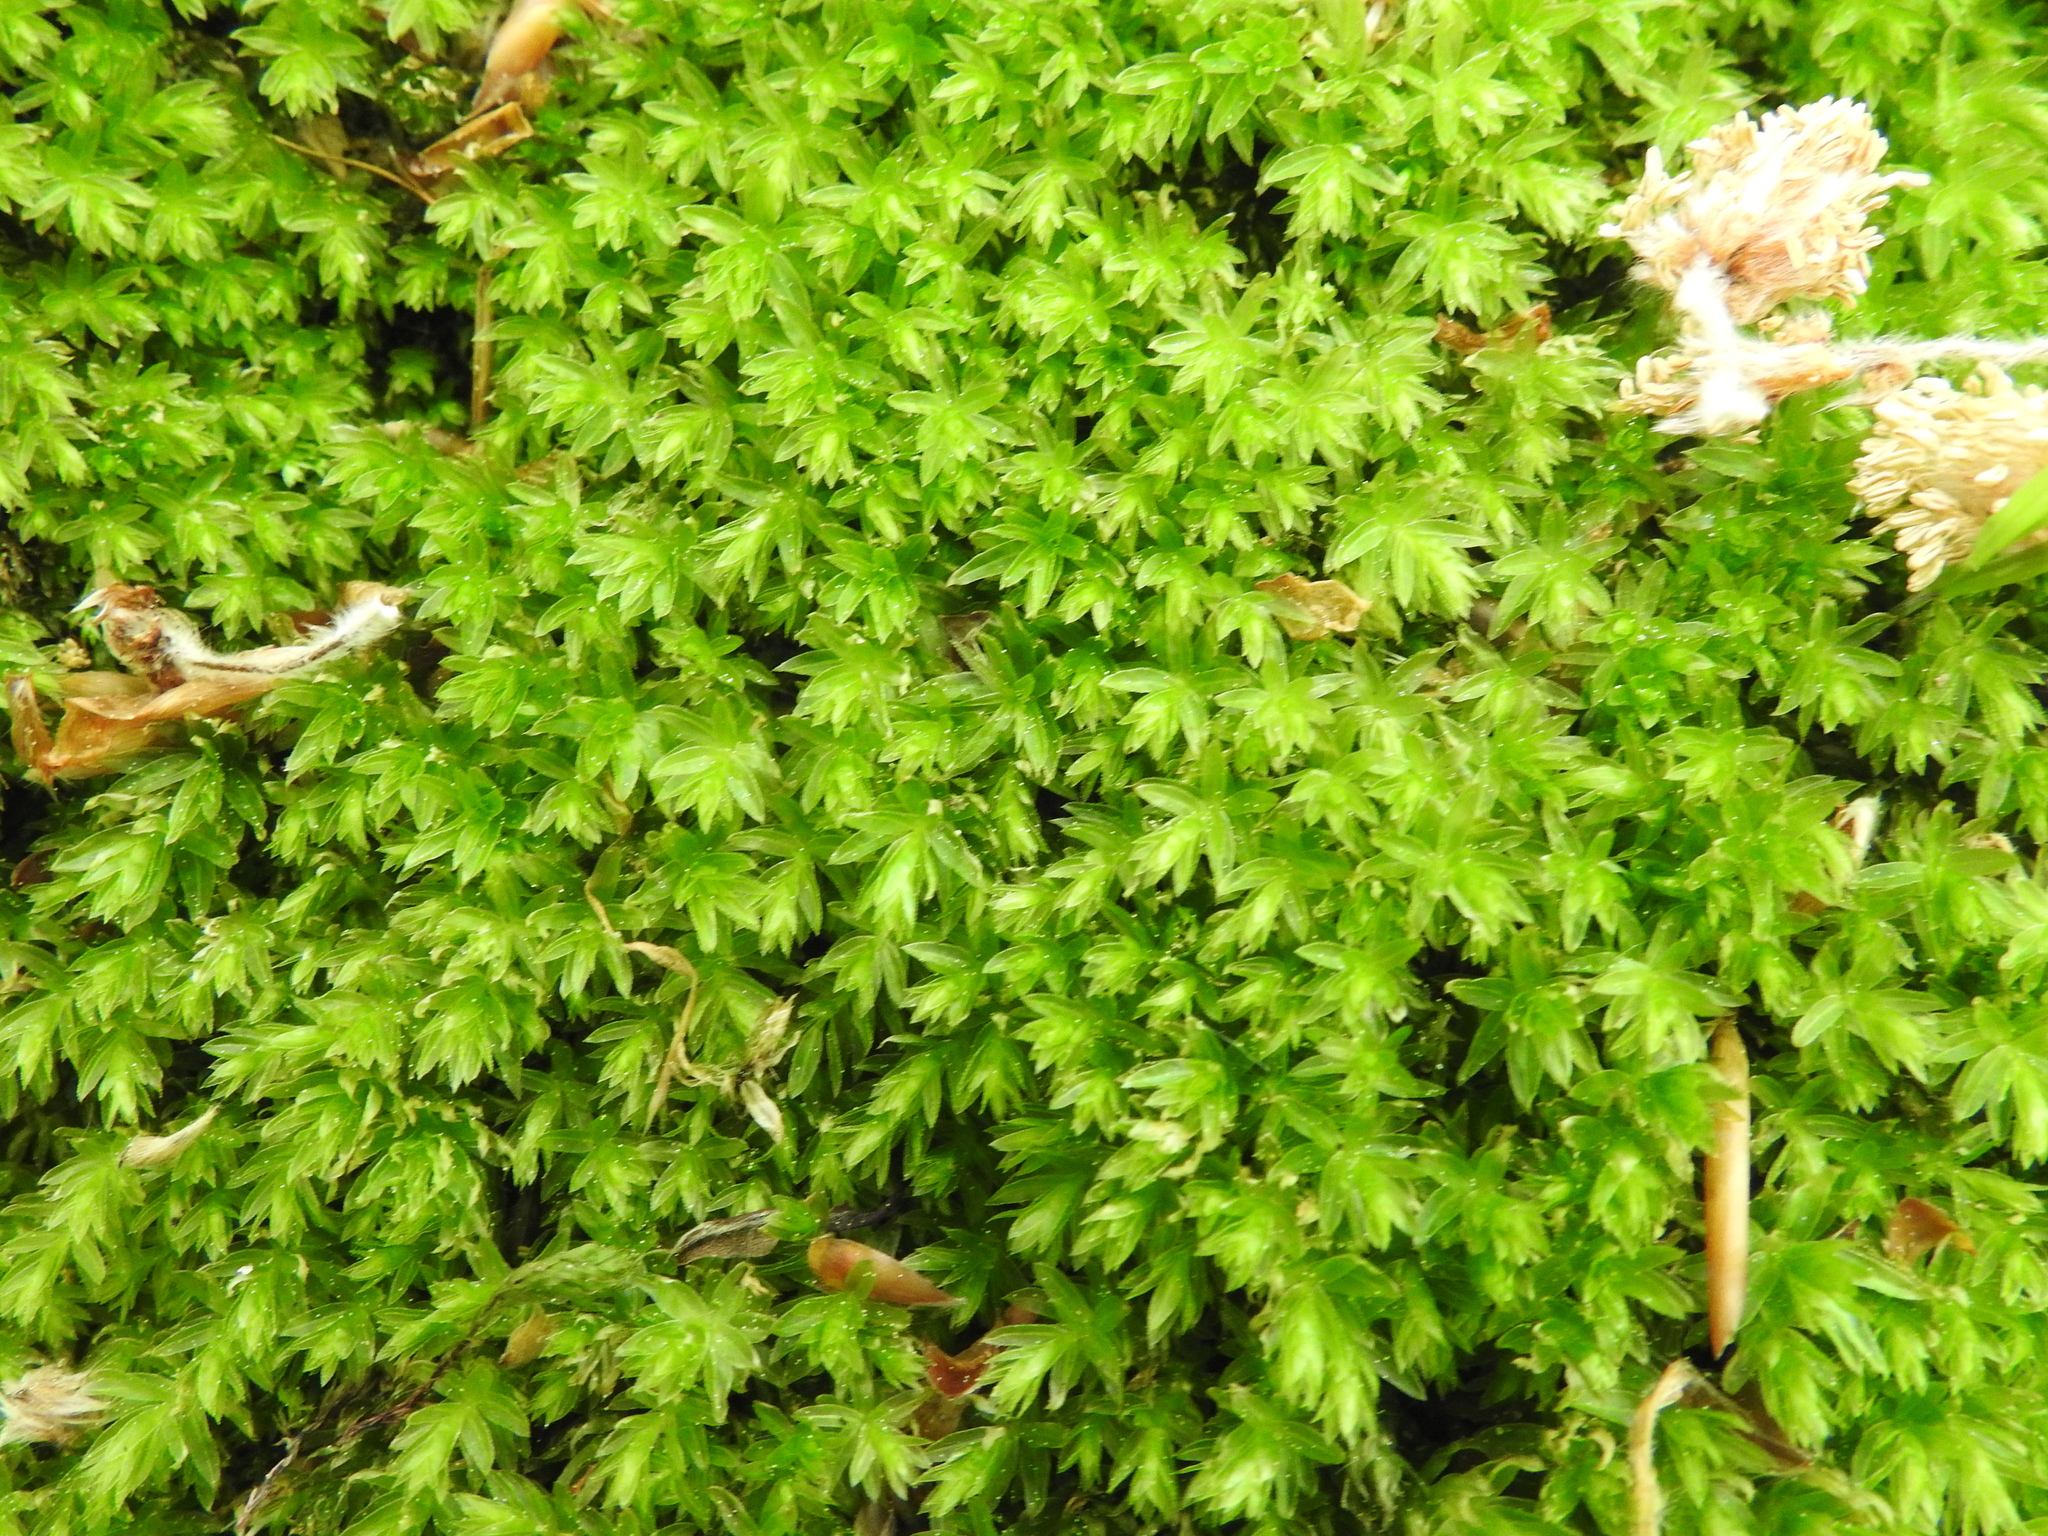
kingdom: Plantae
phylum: Bryophyta
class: Bryopsida
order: Bryales
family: Mniaceae
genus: Mnium
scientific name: Mnium hornum
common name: Swan's-neck leafy moss
